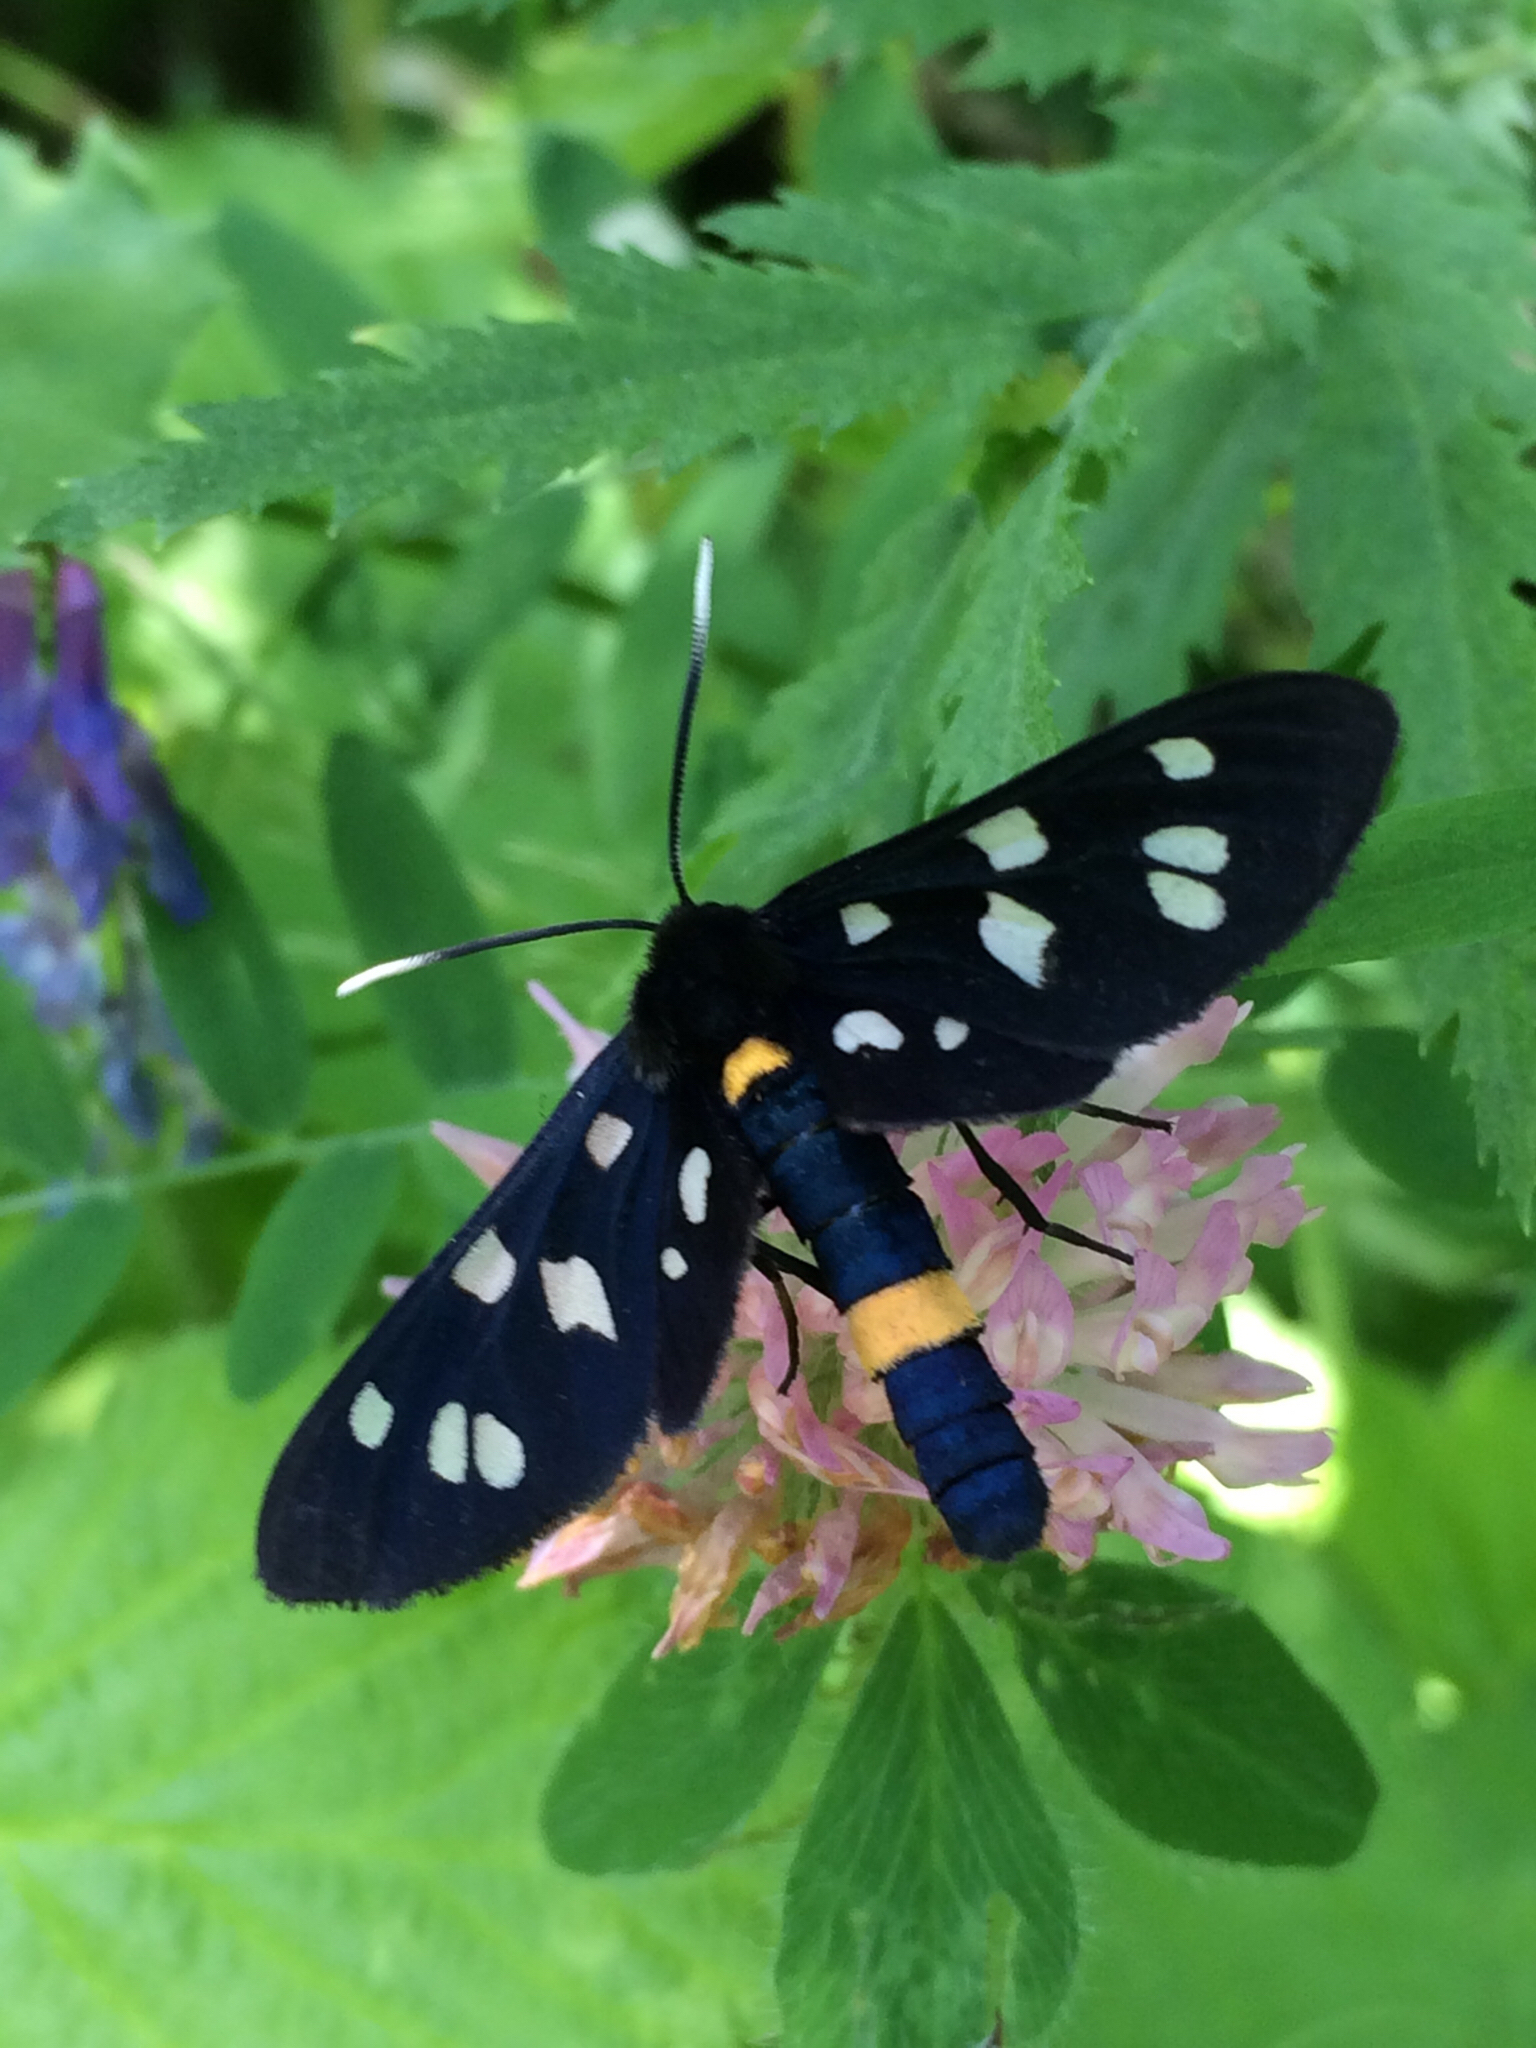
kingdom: Animalia
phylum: Arthropoda
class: Insecta
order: Lepidoptera
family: Erebidae
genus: Amata
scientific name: Amata nigricornis
